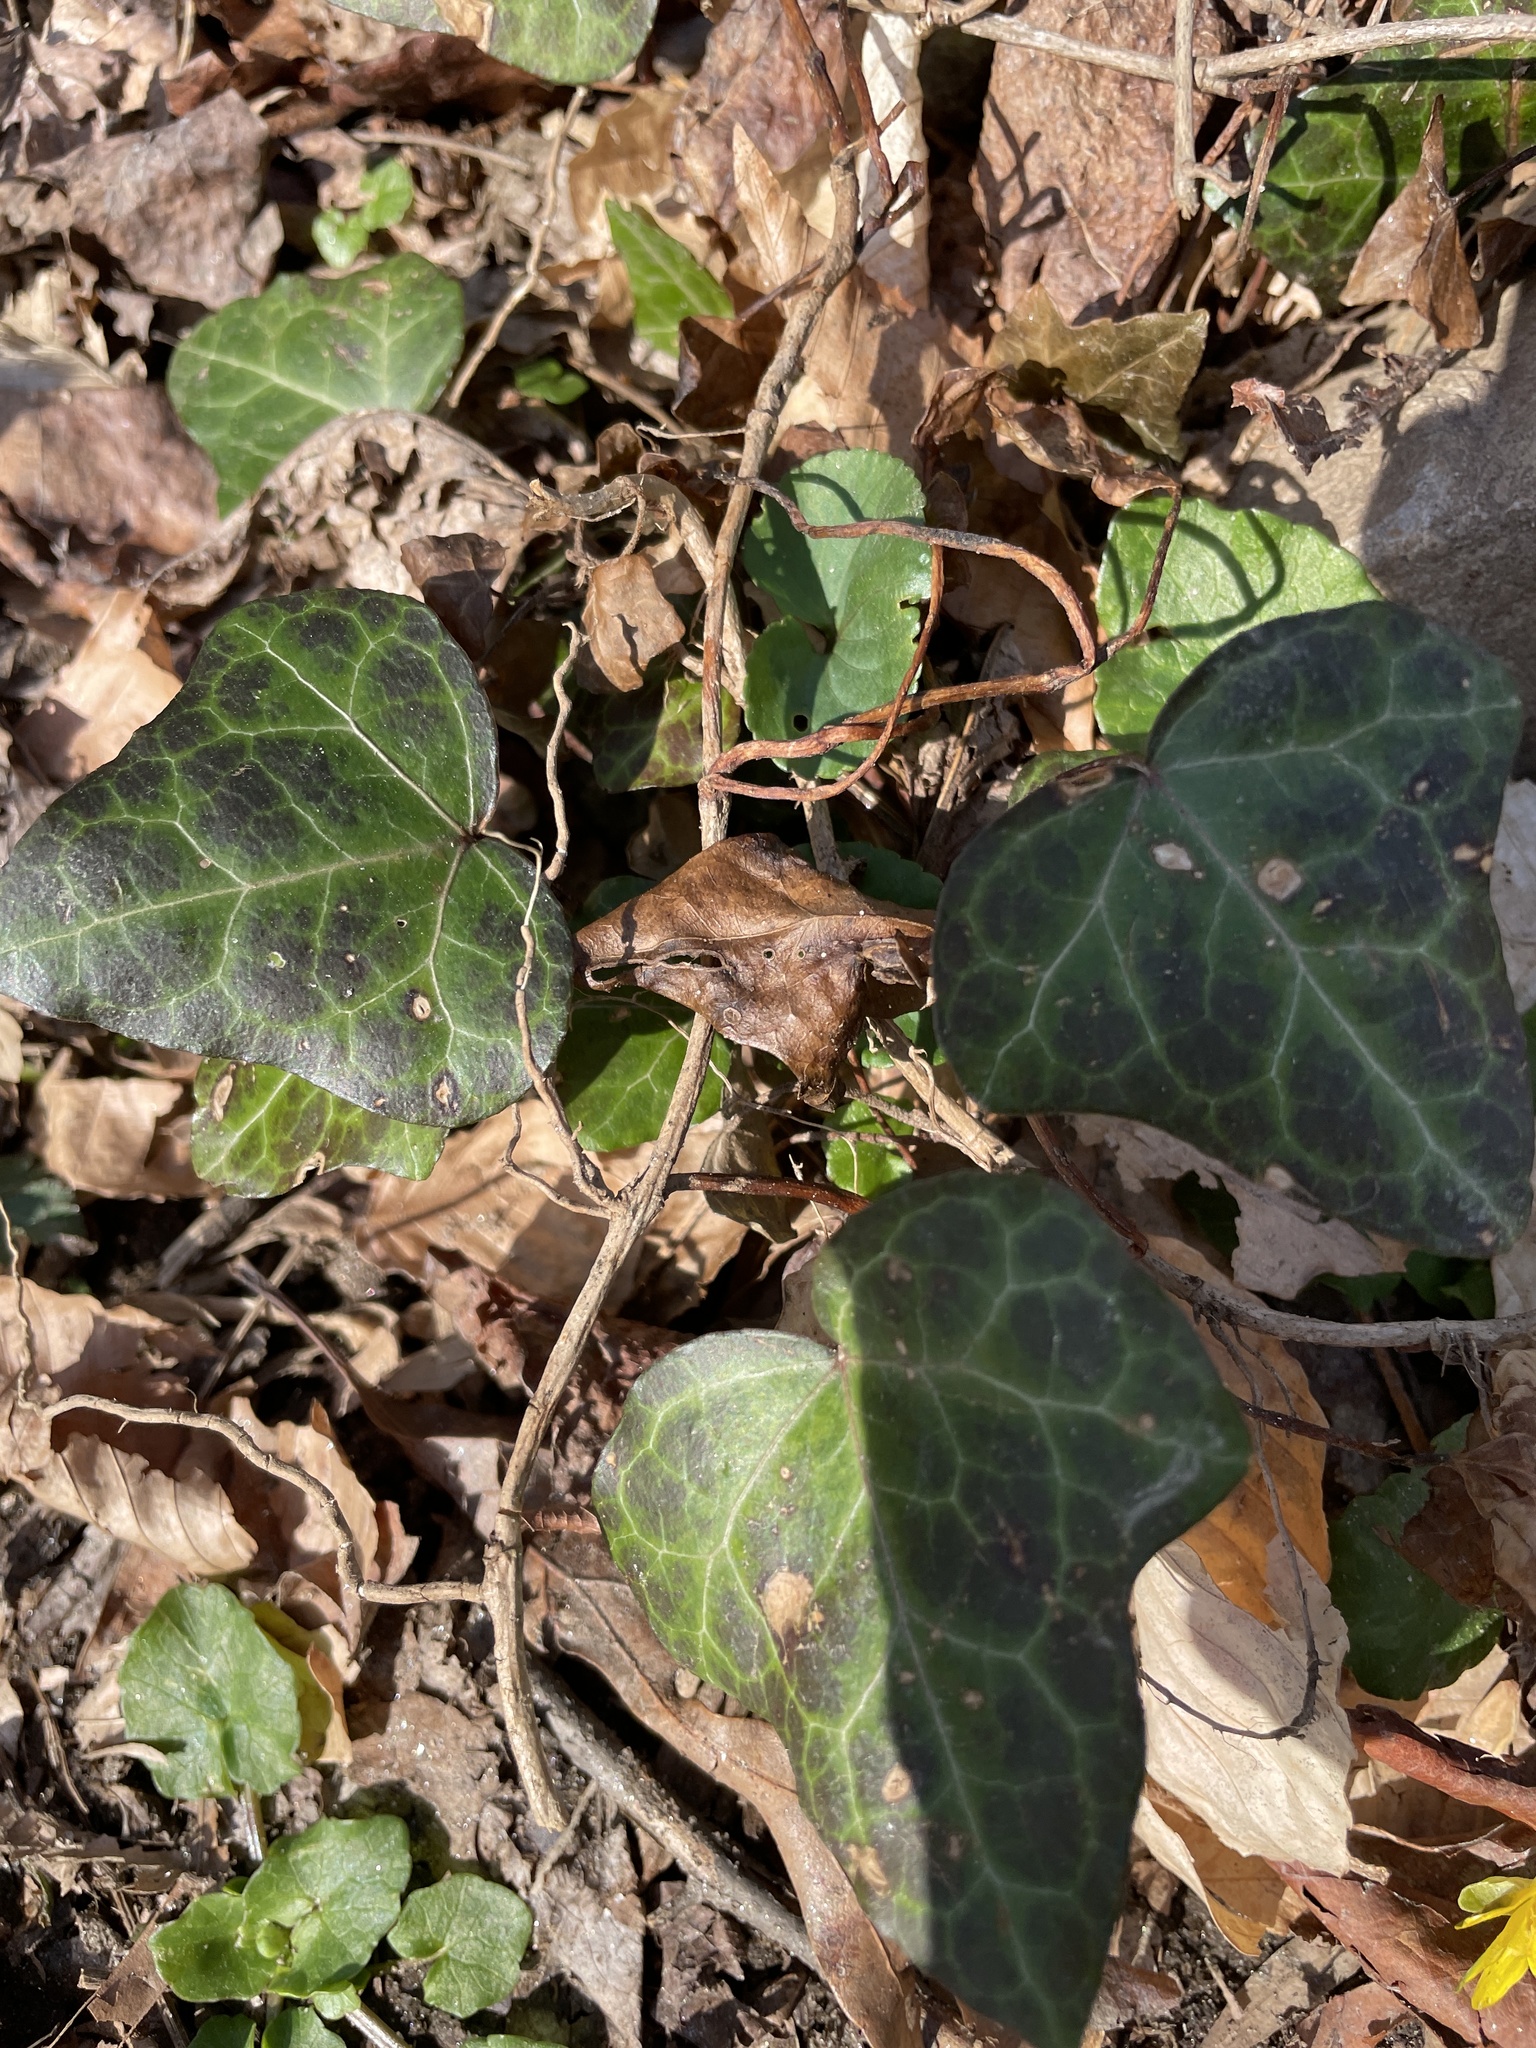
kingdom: Plantae
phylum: Tracheophyta
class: Magnoliopsida
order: Apiales
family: Araliaceae
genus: Hedera
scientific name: Hedera helix
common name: Ivy
